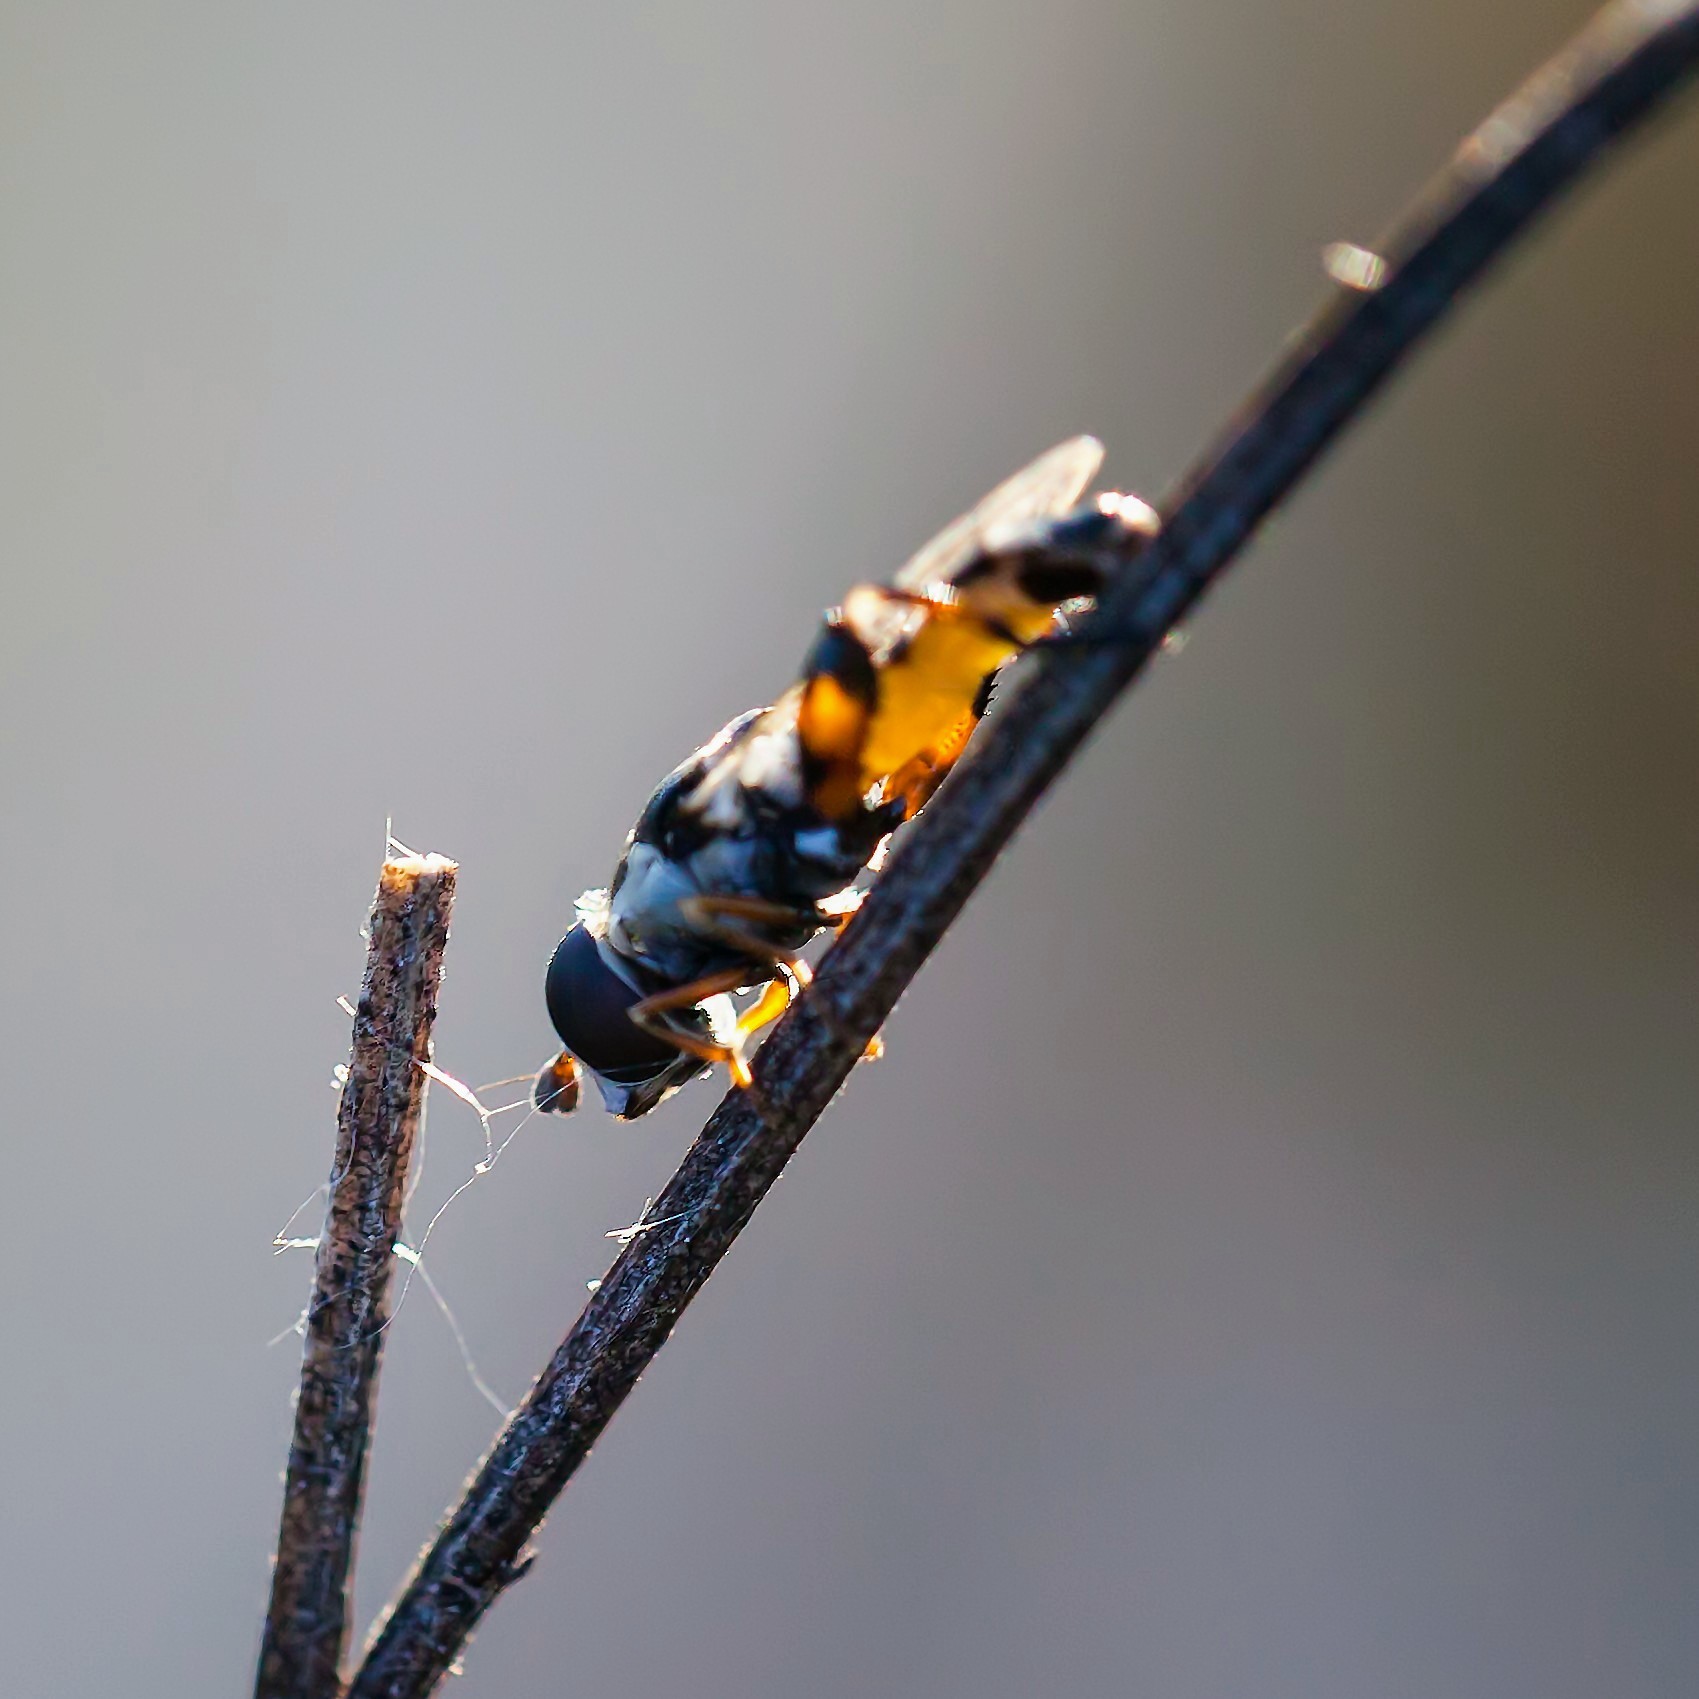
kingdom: Animalia
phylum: Arthropoda
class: Insecta
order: Diptera
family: Syrphidae
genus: Syritta
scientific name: Syritta pipiens
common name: Hover fly
